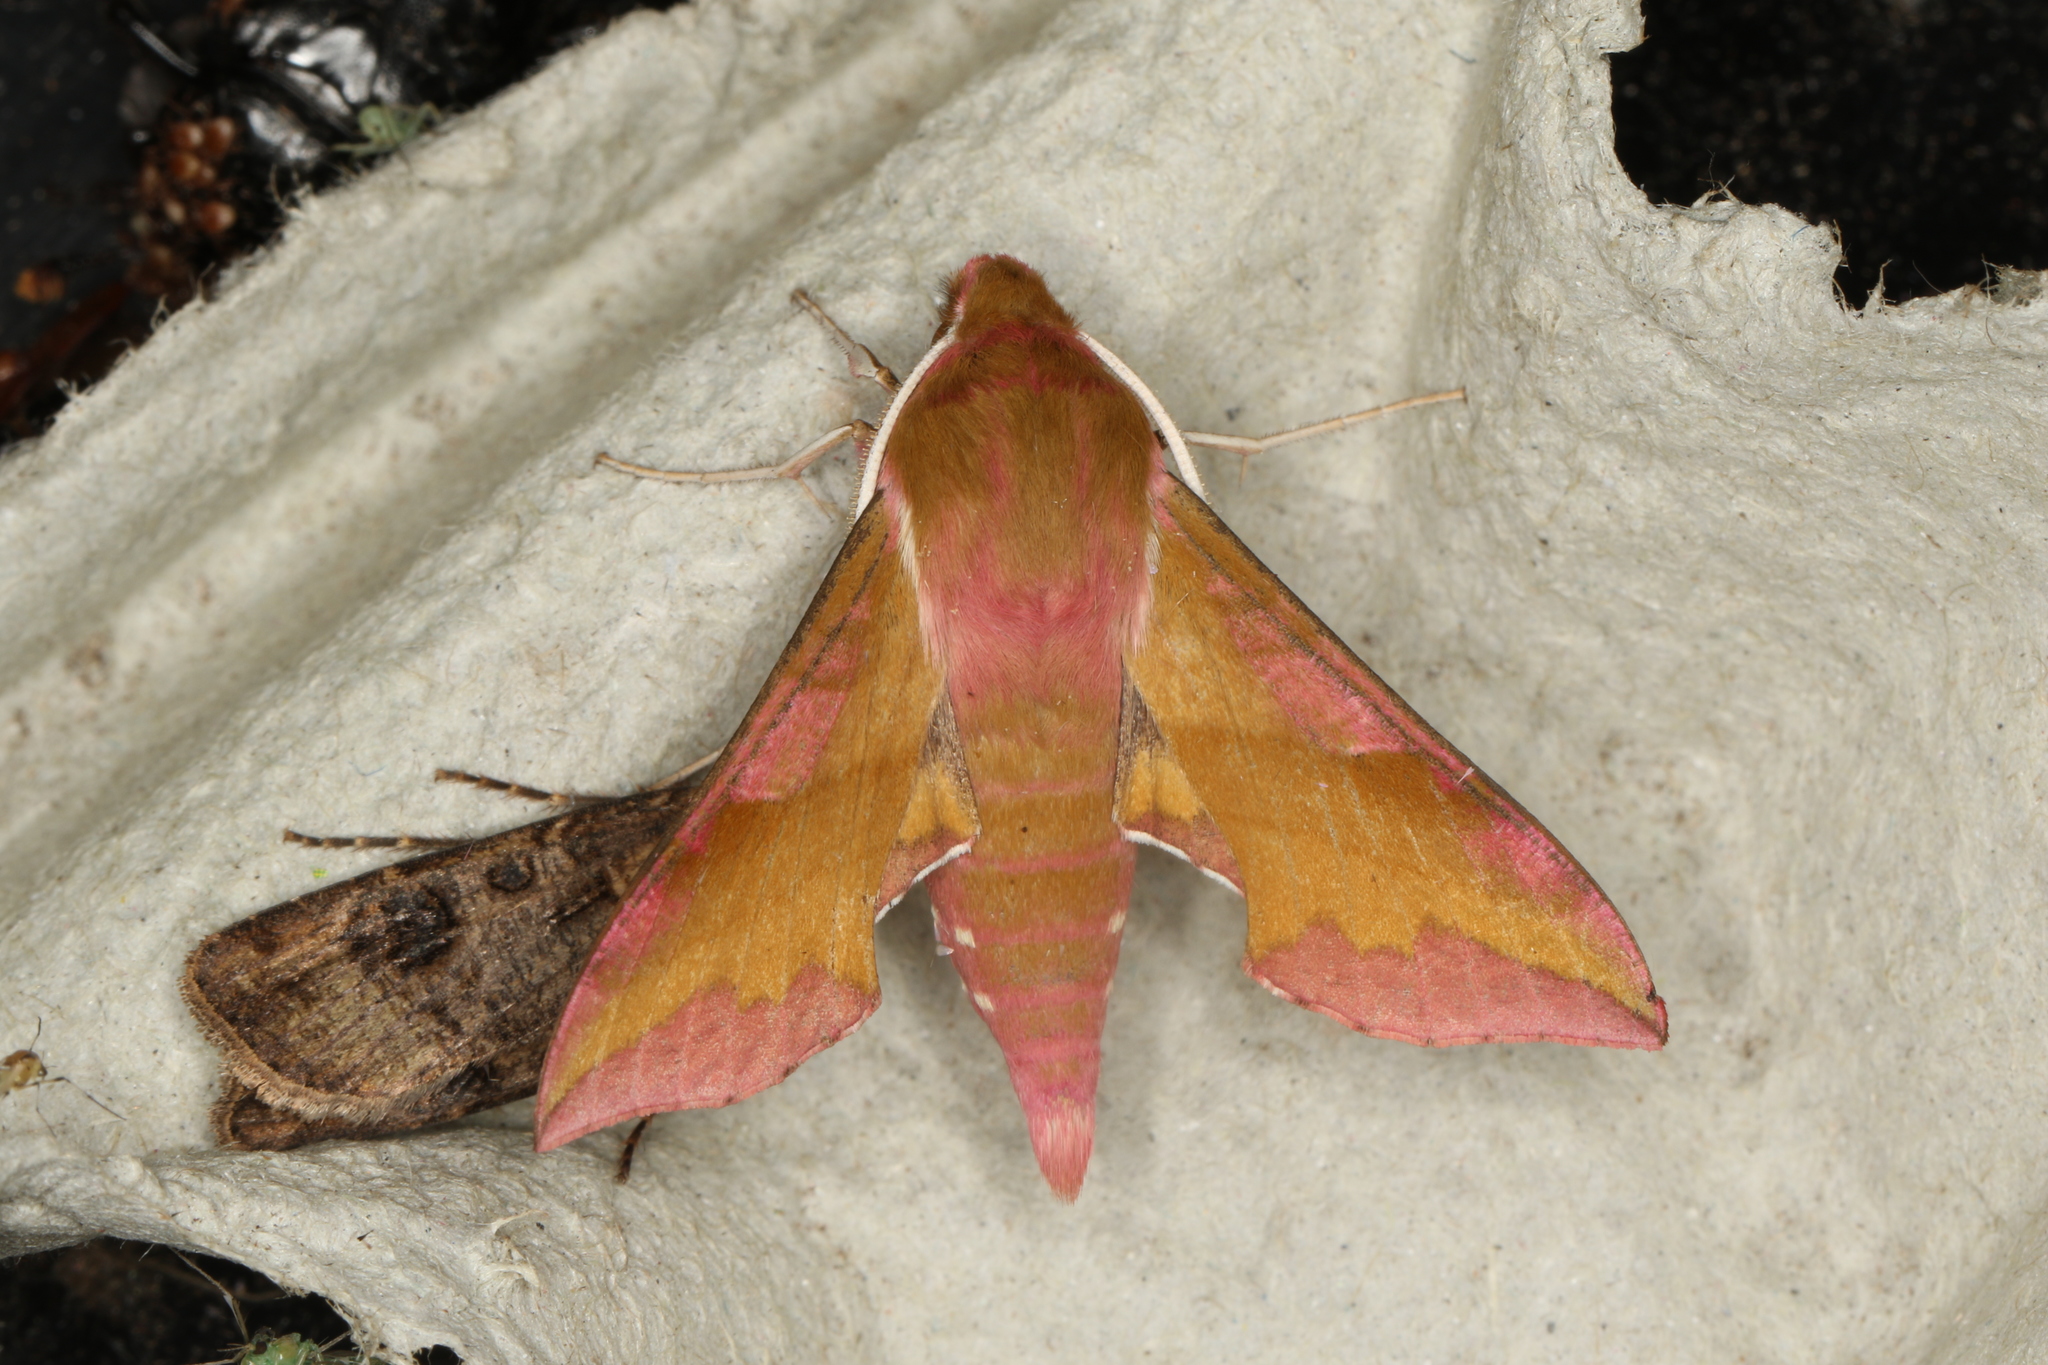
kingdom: Animalia
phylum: Arthropoda
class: Insecta
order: Lepidoptera
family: Sphingidae
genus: Deilephila
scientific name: Deilephila porcellus
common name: Small elephant hawk-moth
